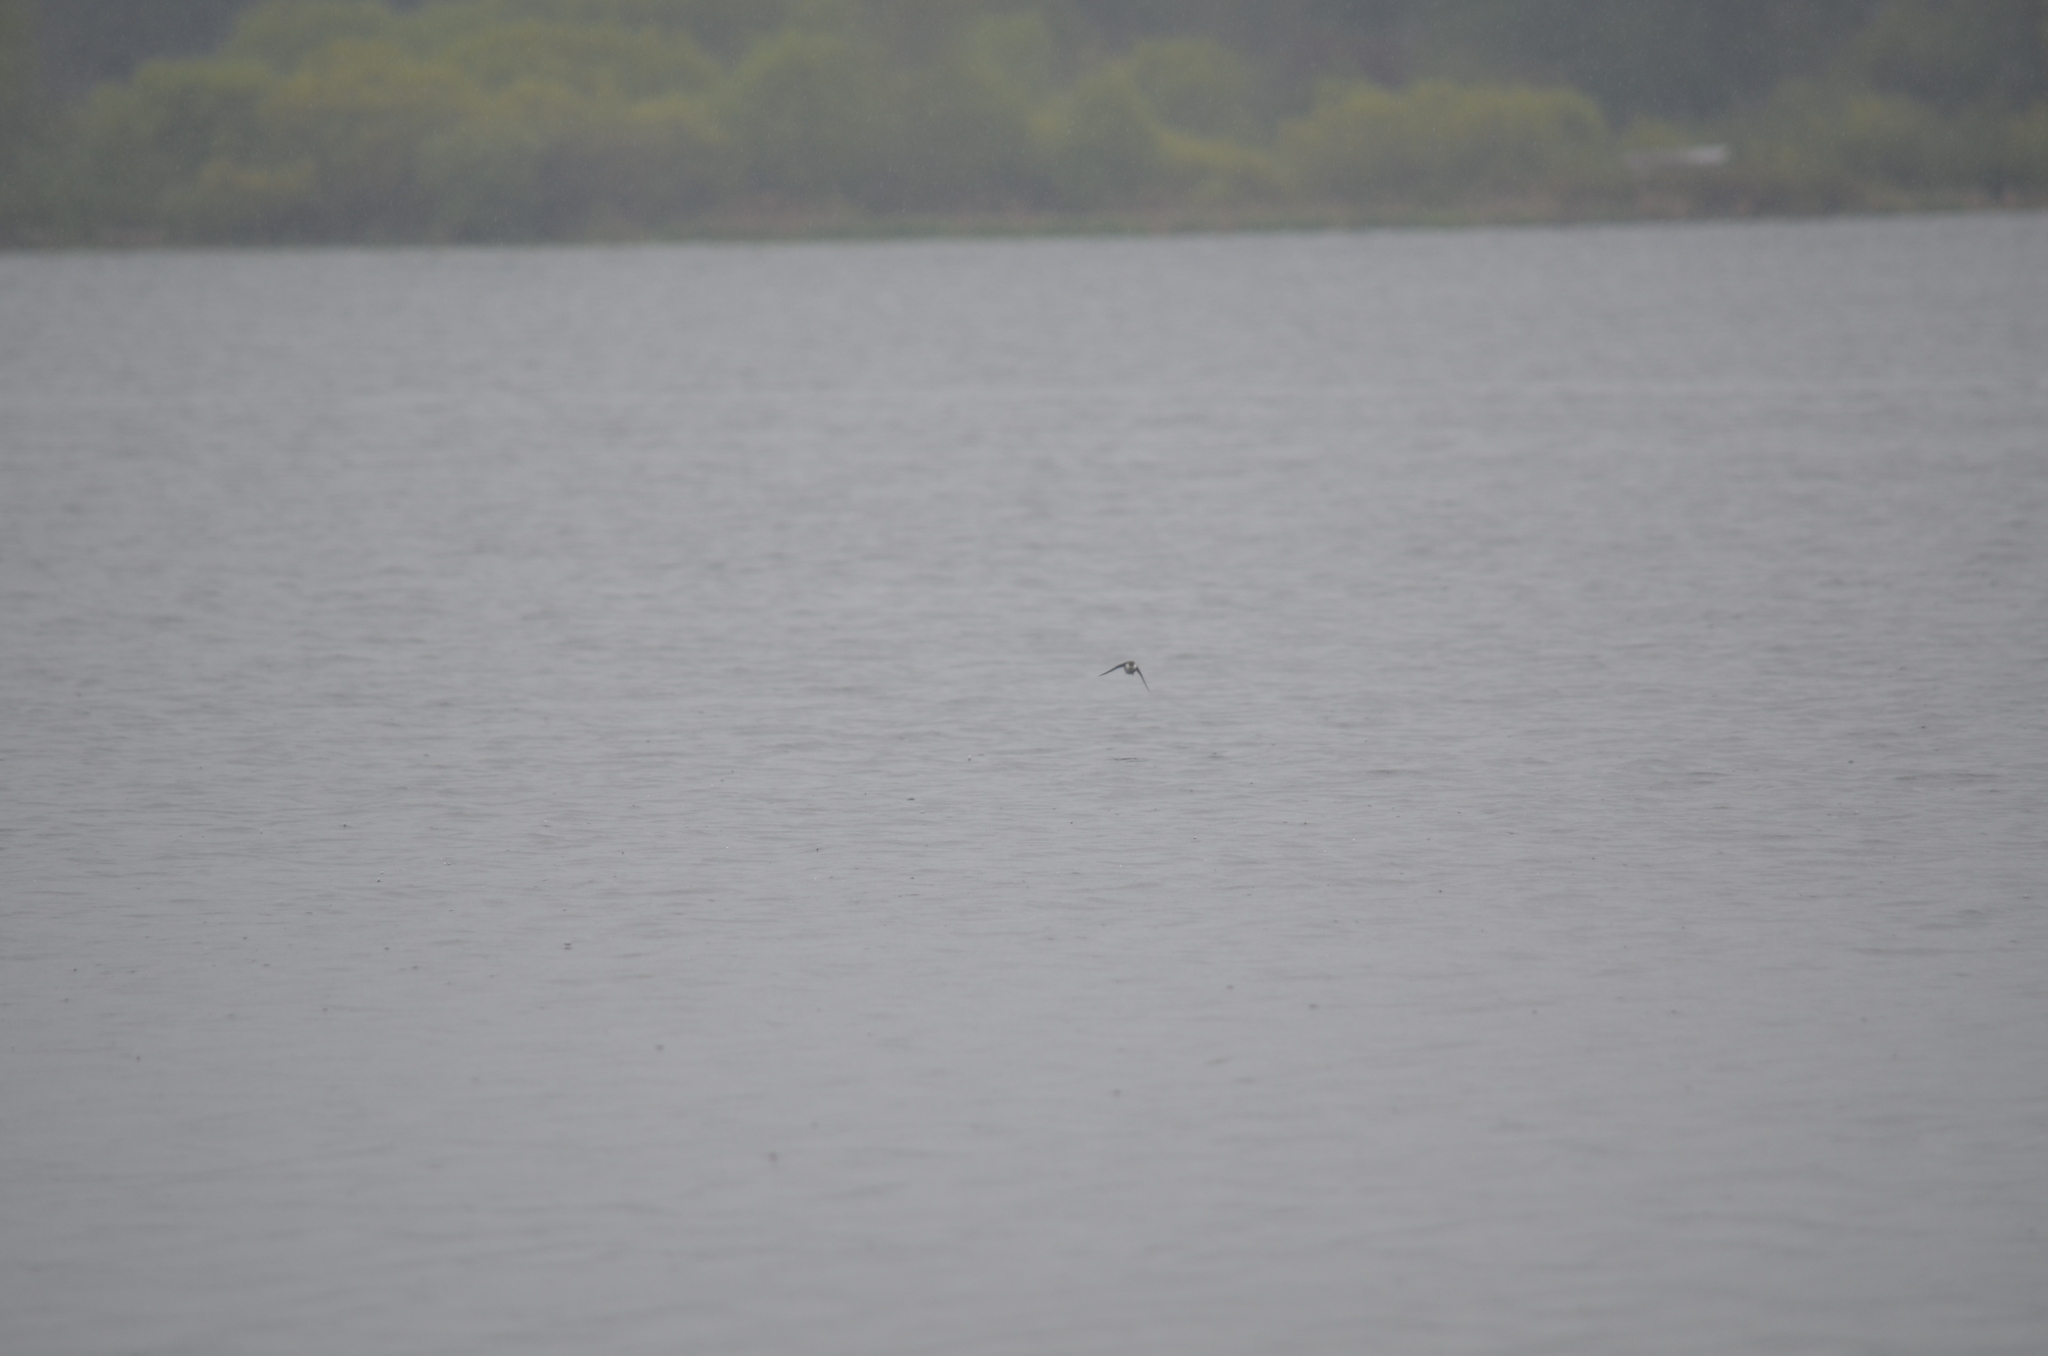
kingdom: Animalia
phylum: Chordata
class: Aves
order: Passeriformes
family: Hirundinidae
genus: Tachycineta
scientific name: Tachycineta thalassina
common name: Violet-green swallow
